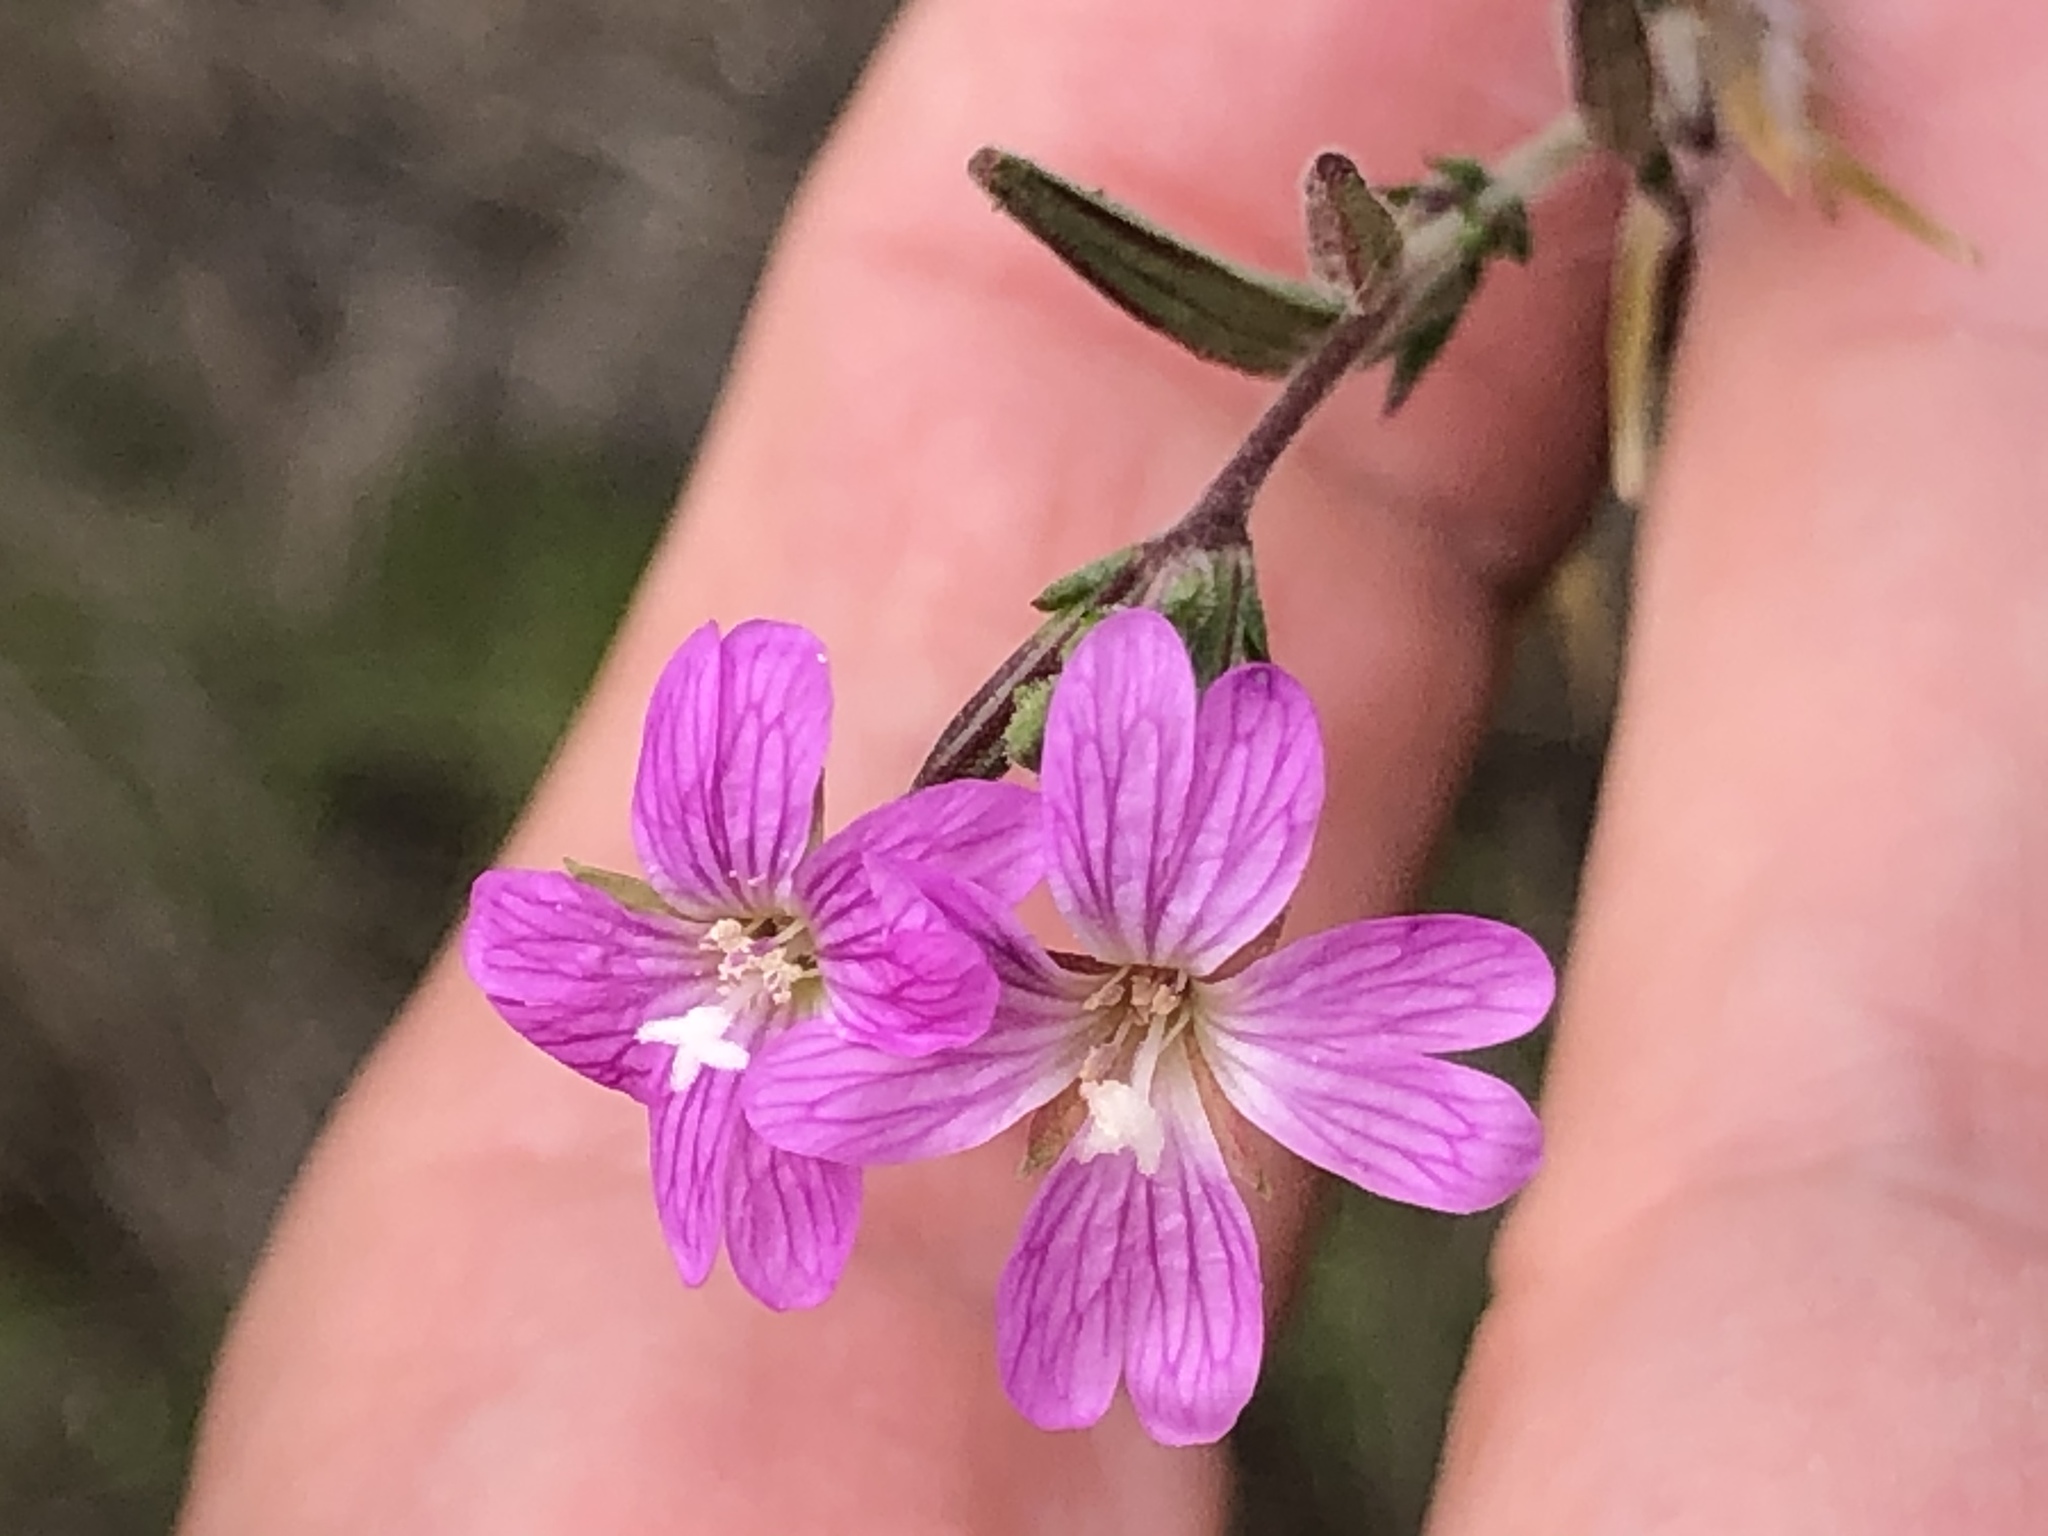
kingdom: Plantae
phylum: Tracheophyta
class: Magnoliopsida
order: Myrtales
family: Onagraceae
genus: Epilobium
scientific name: Epilobium brachycarpum
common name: Annual willowherb
